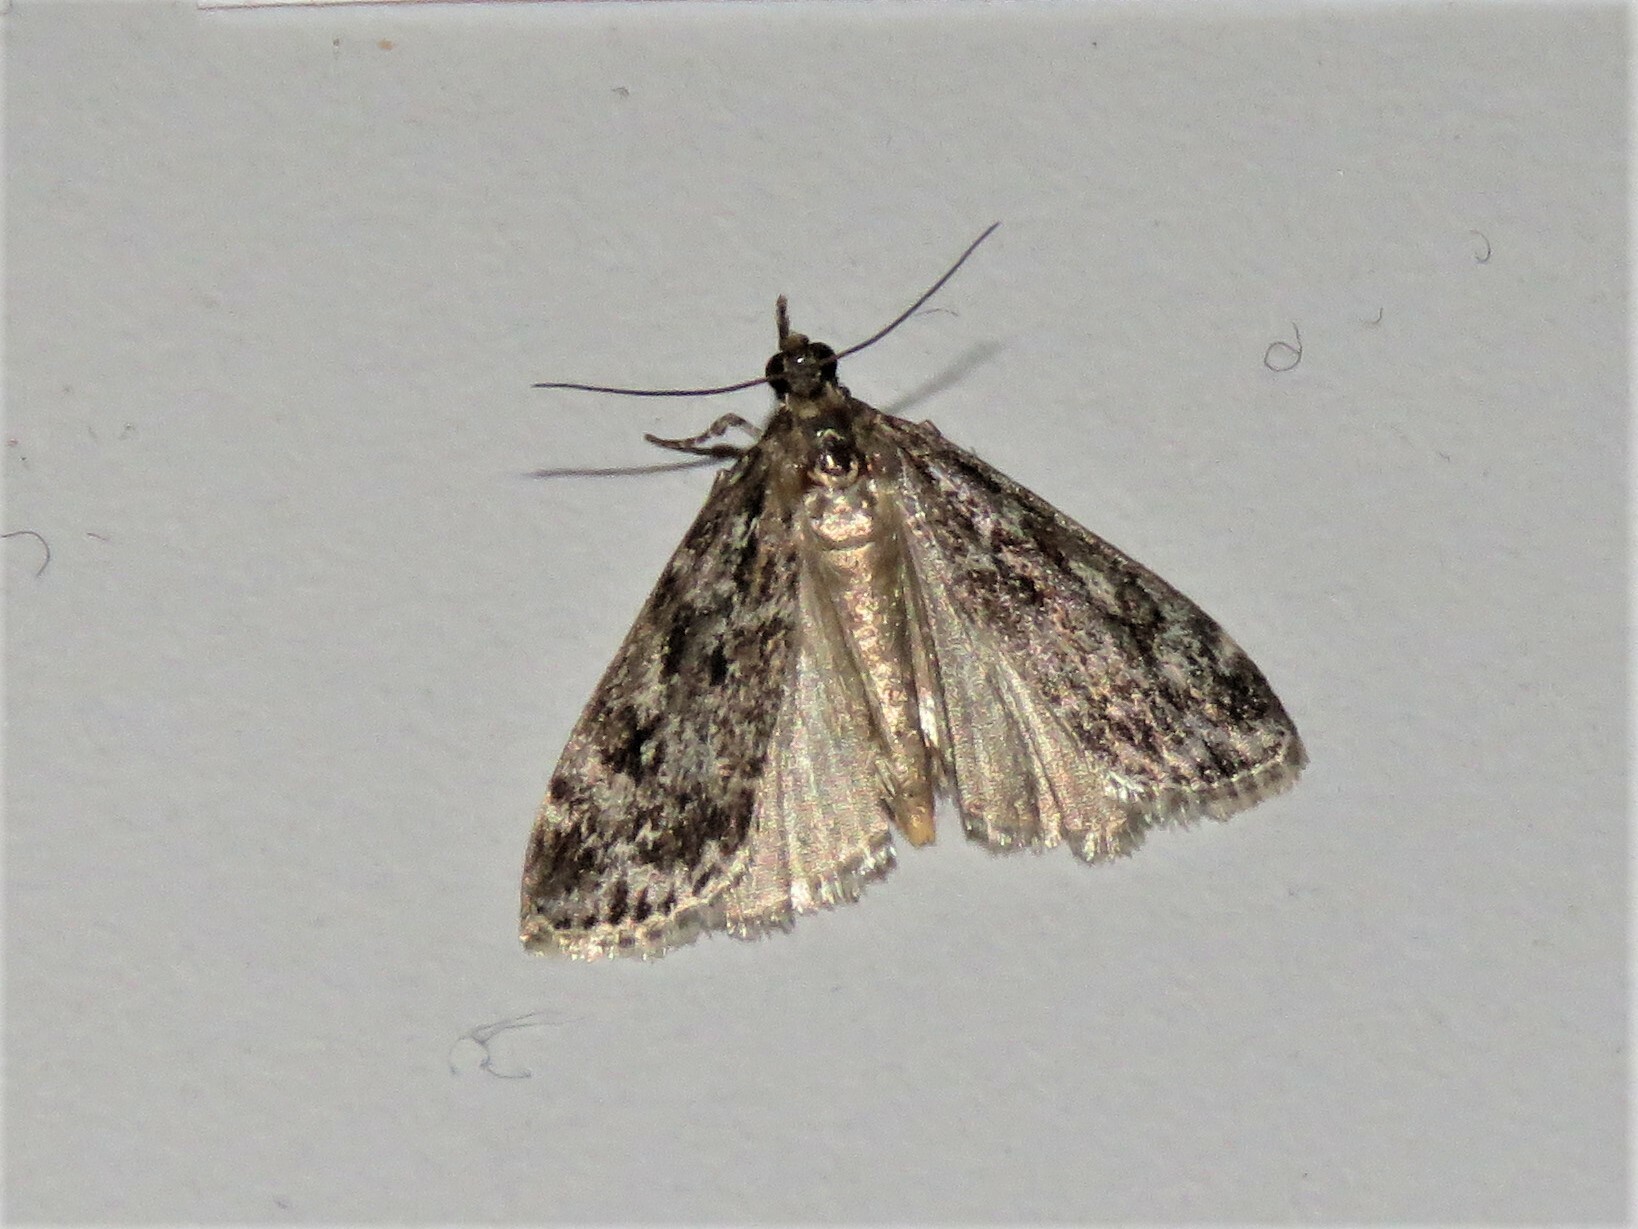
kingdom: Animalia
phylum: Arthropoda
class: Insecta
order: Lepidoptera
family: Crambidae
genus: Eudonia
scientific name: Eudonia truncicolella
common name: Ground-moss grey
